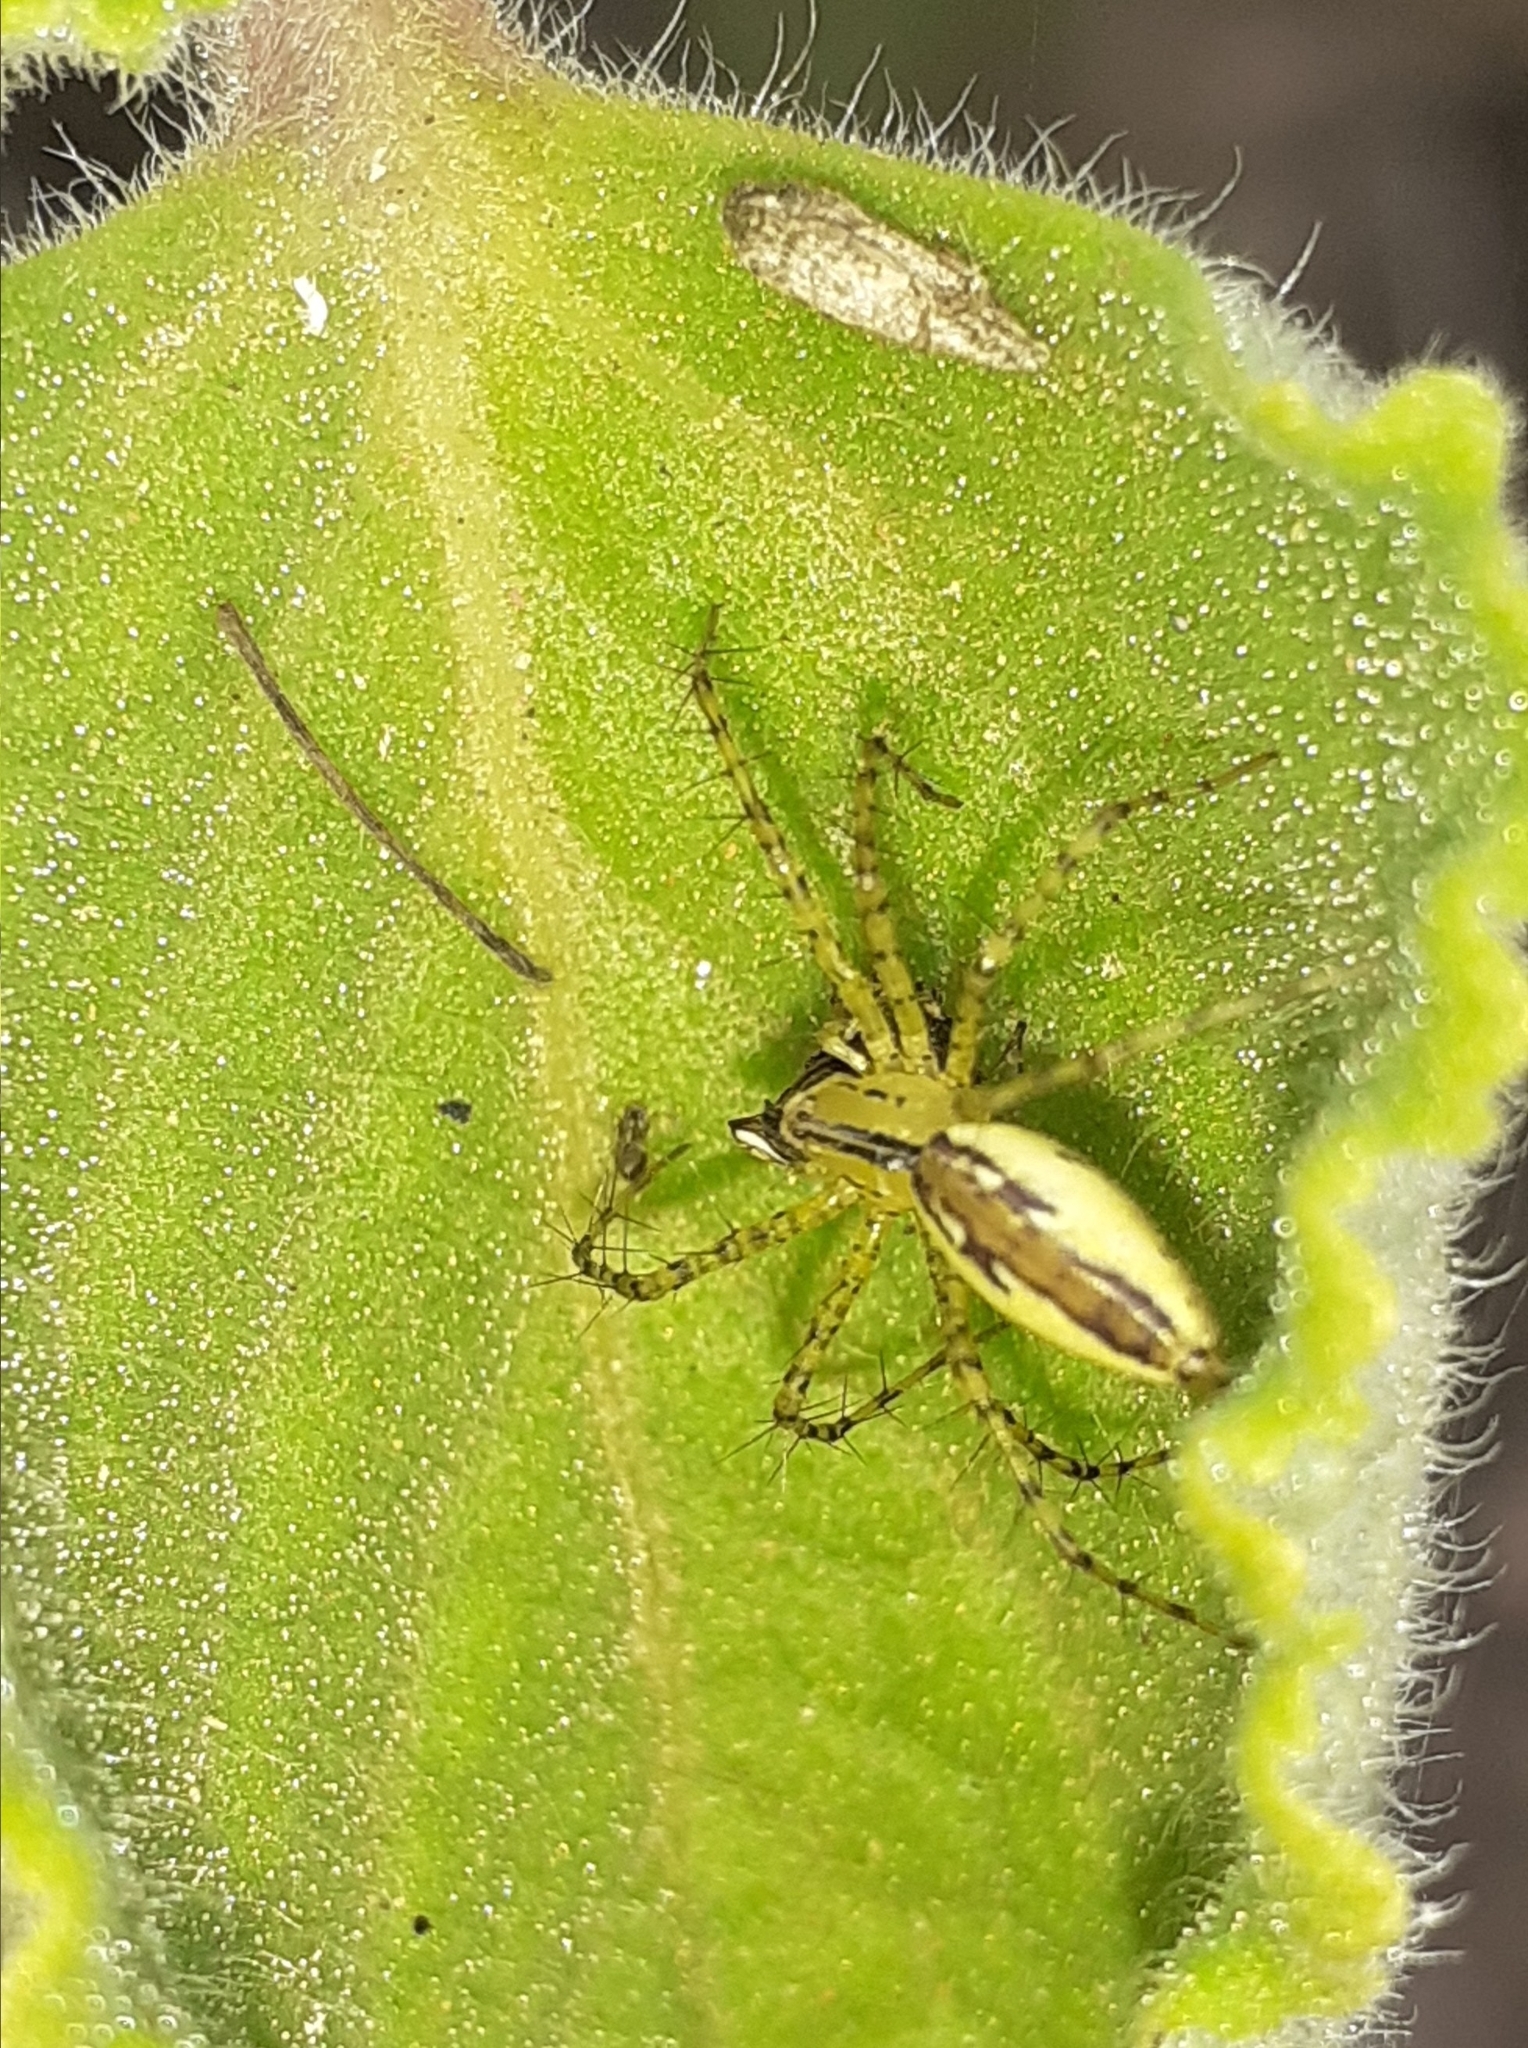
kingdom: Animalia
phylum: Arthropoda
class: Arachnida
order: Araneae
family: Oxyopidae
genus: Peucetia
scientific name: Peucetia rubrolineata
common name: Lynx spiders
